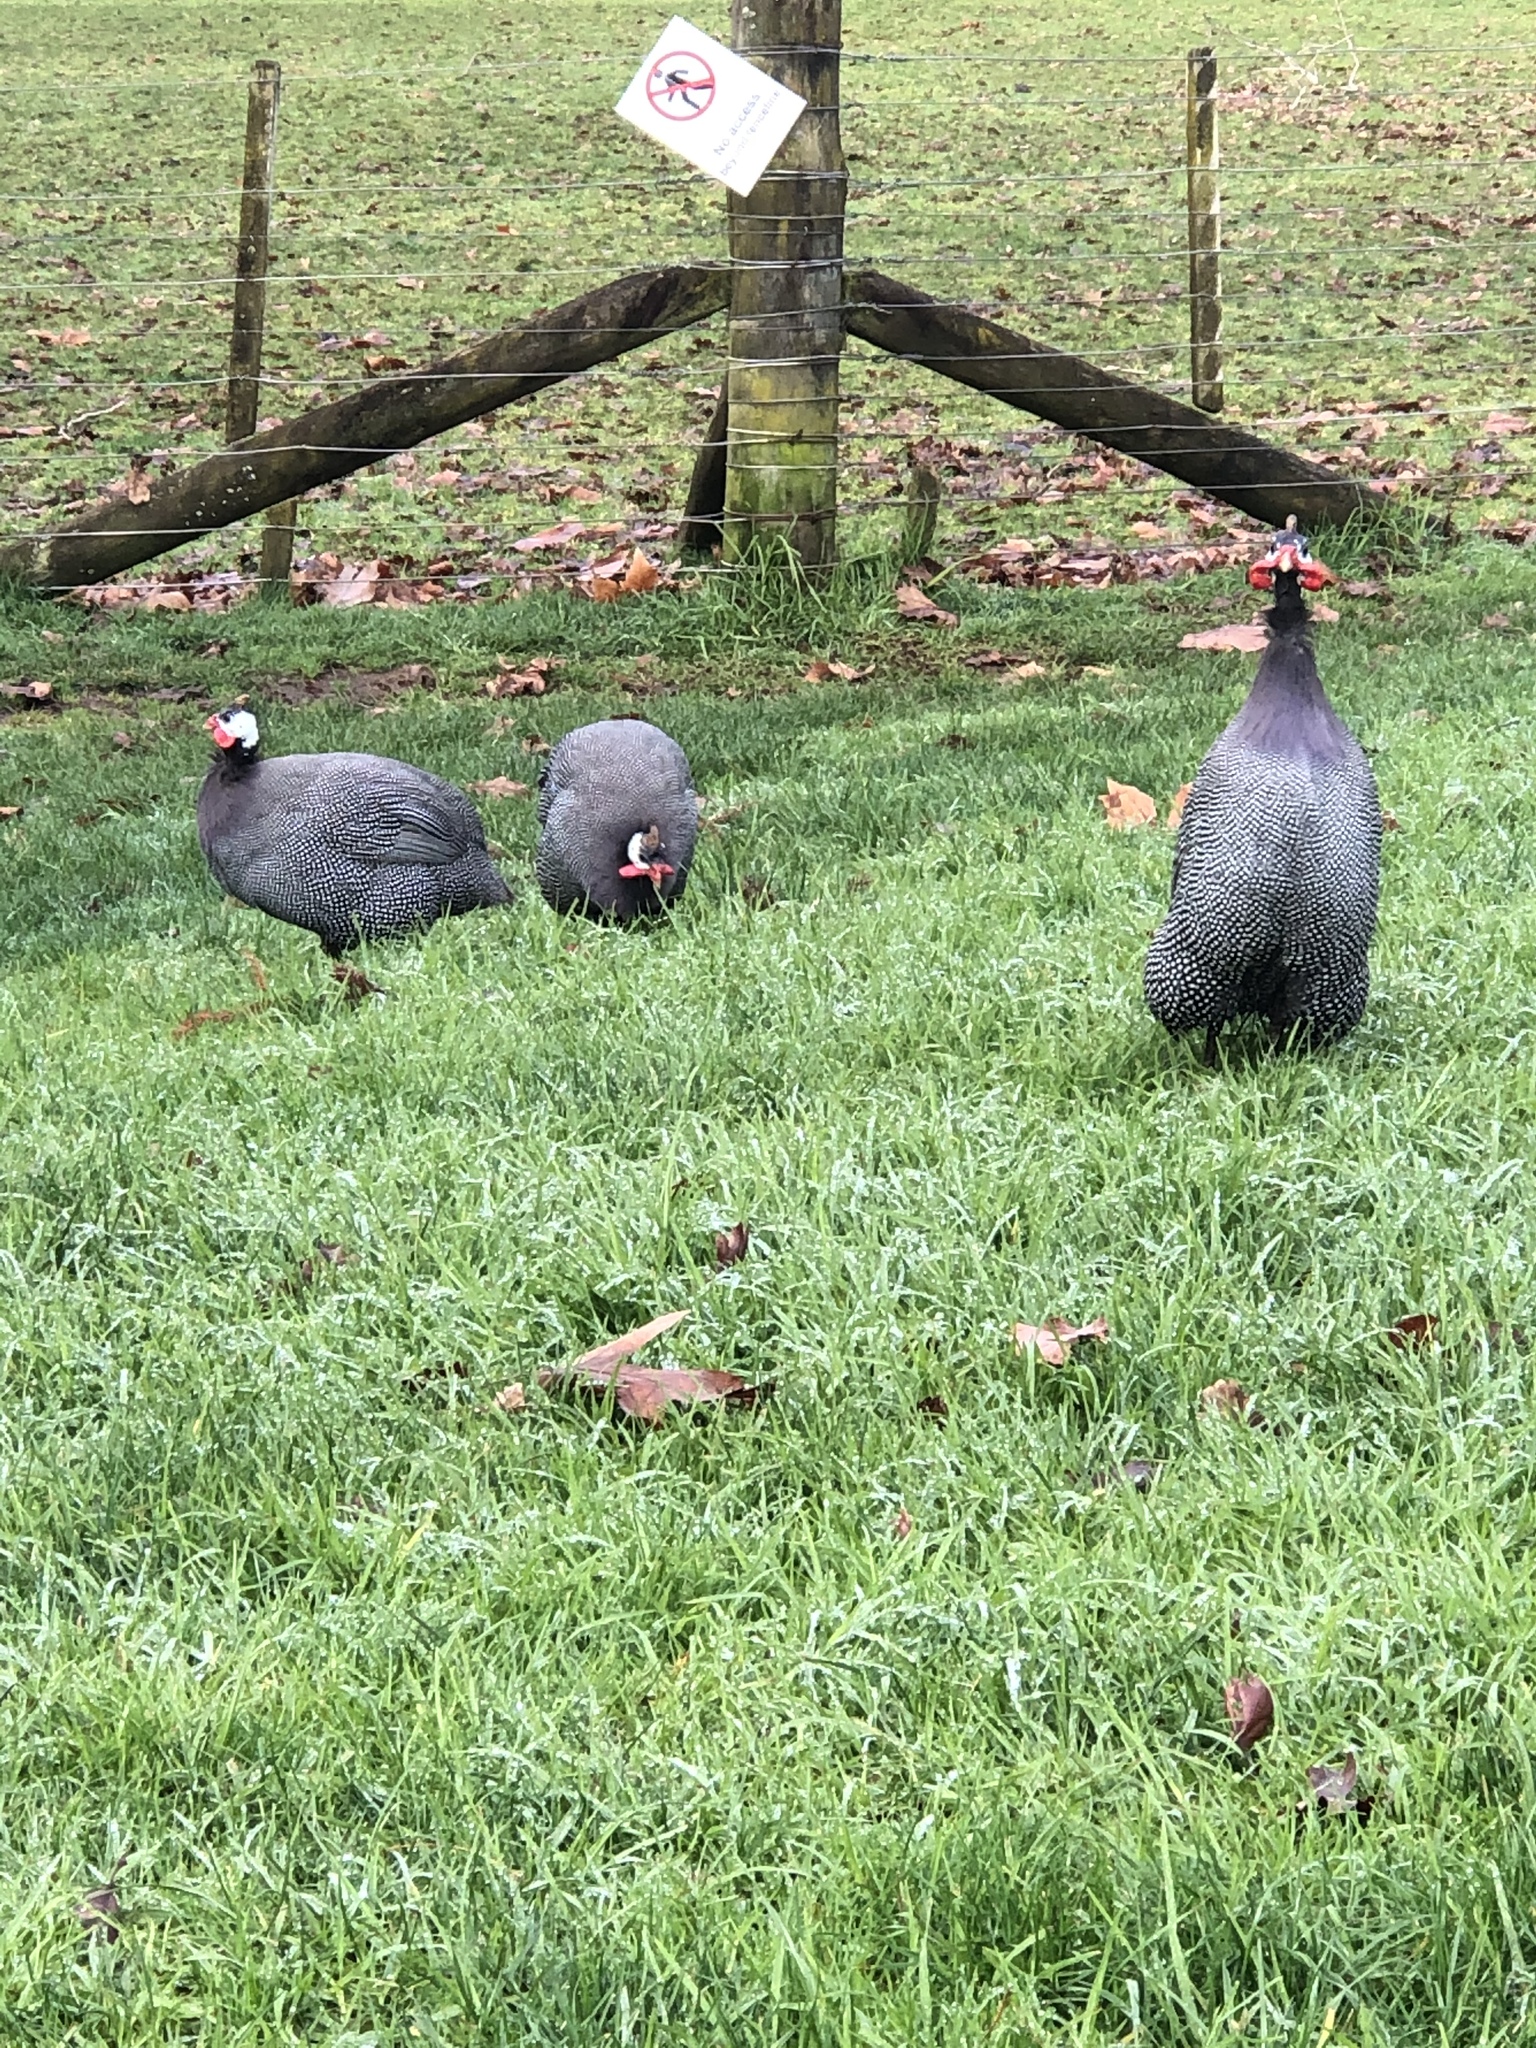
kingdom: Animalia
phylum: Chordata
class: Aves
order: Galliformes
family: Numididae
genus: Numida
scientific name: Numida meleagris
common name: Helmeted guineafowl
